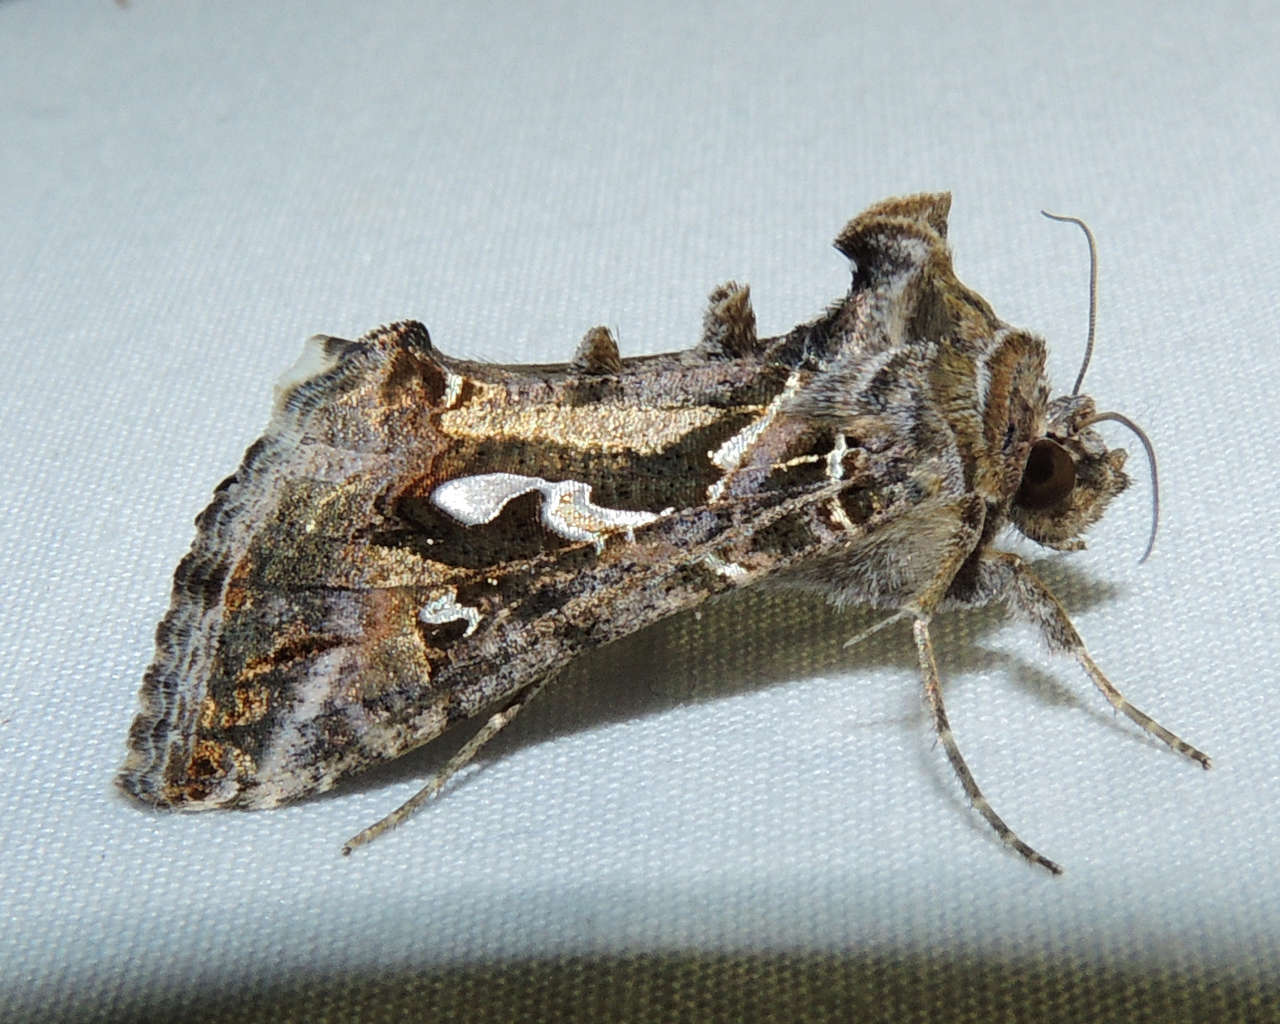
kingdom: Animalia
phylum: Arthropoda
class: Insecta
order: Lepidoptera
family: Noctuidae
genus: Chrysodeixis
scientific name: Chrysodeixis argentifera
